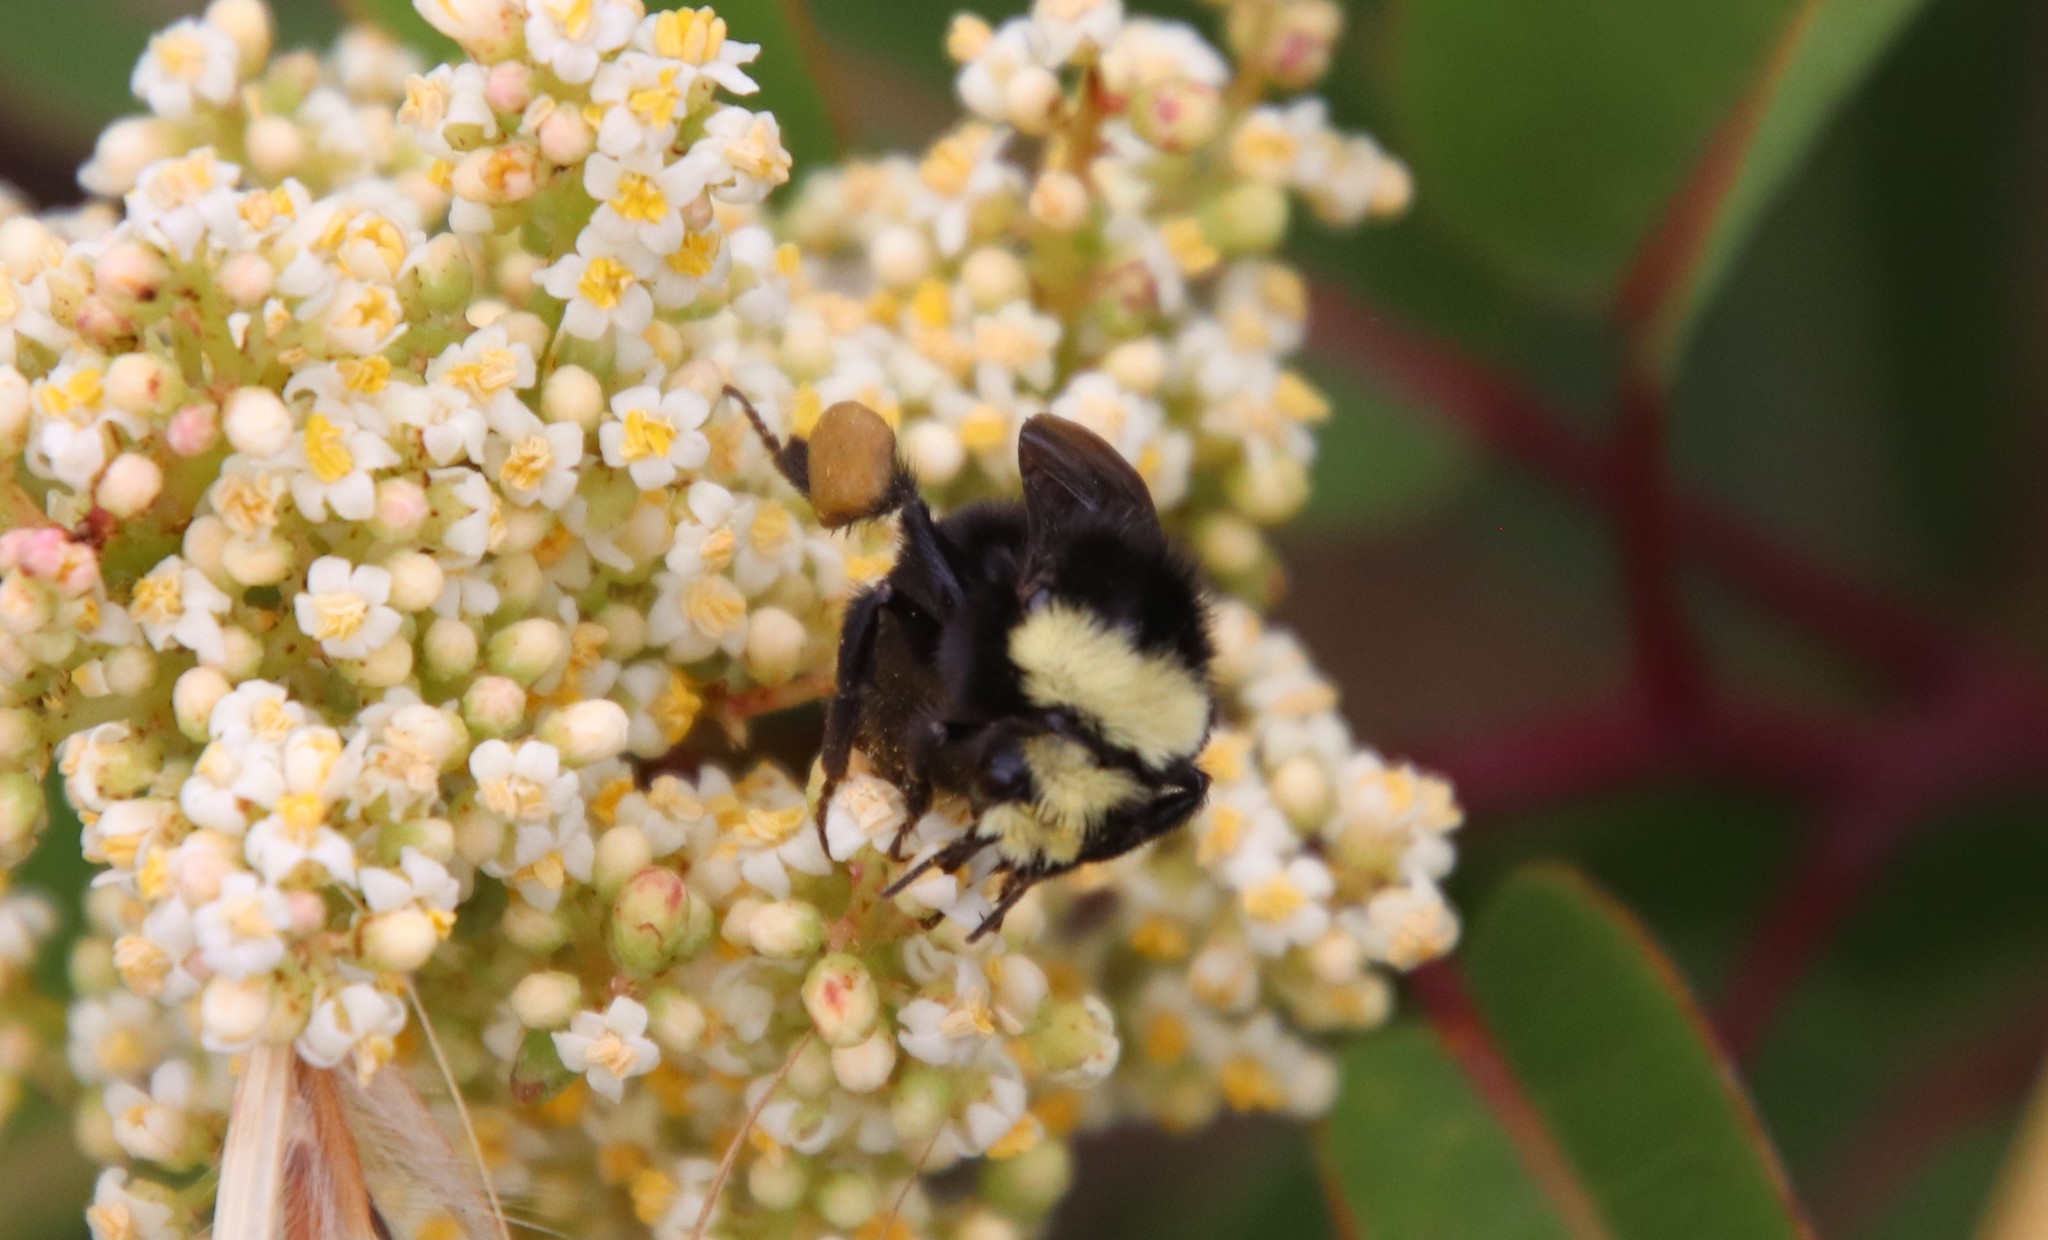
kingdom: Animalia
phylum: Arthropoda
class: Insecta
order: Hymenoptera
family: Apidae
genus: Bombus
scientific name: Bombus vosnesenskii
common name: Vosnesensky bumble bee
